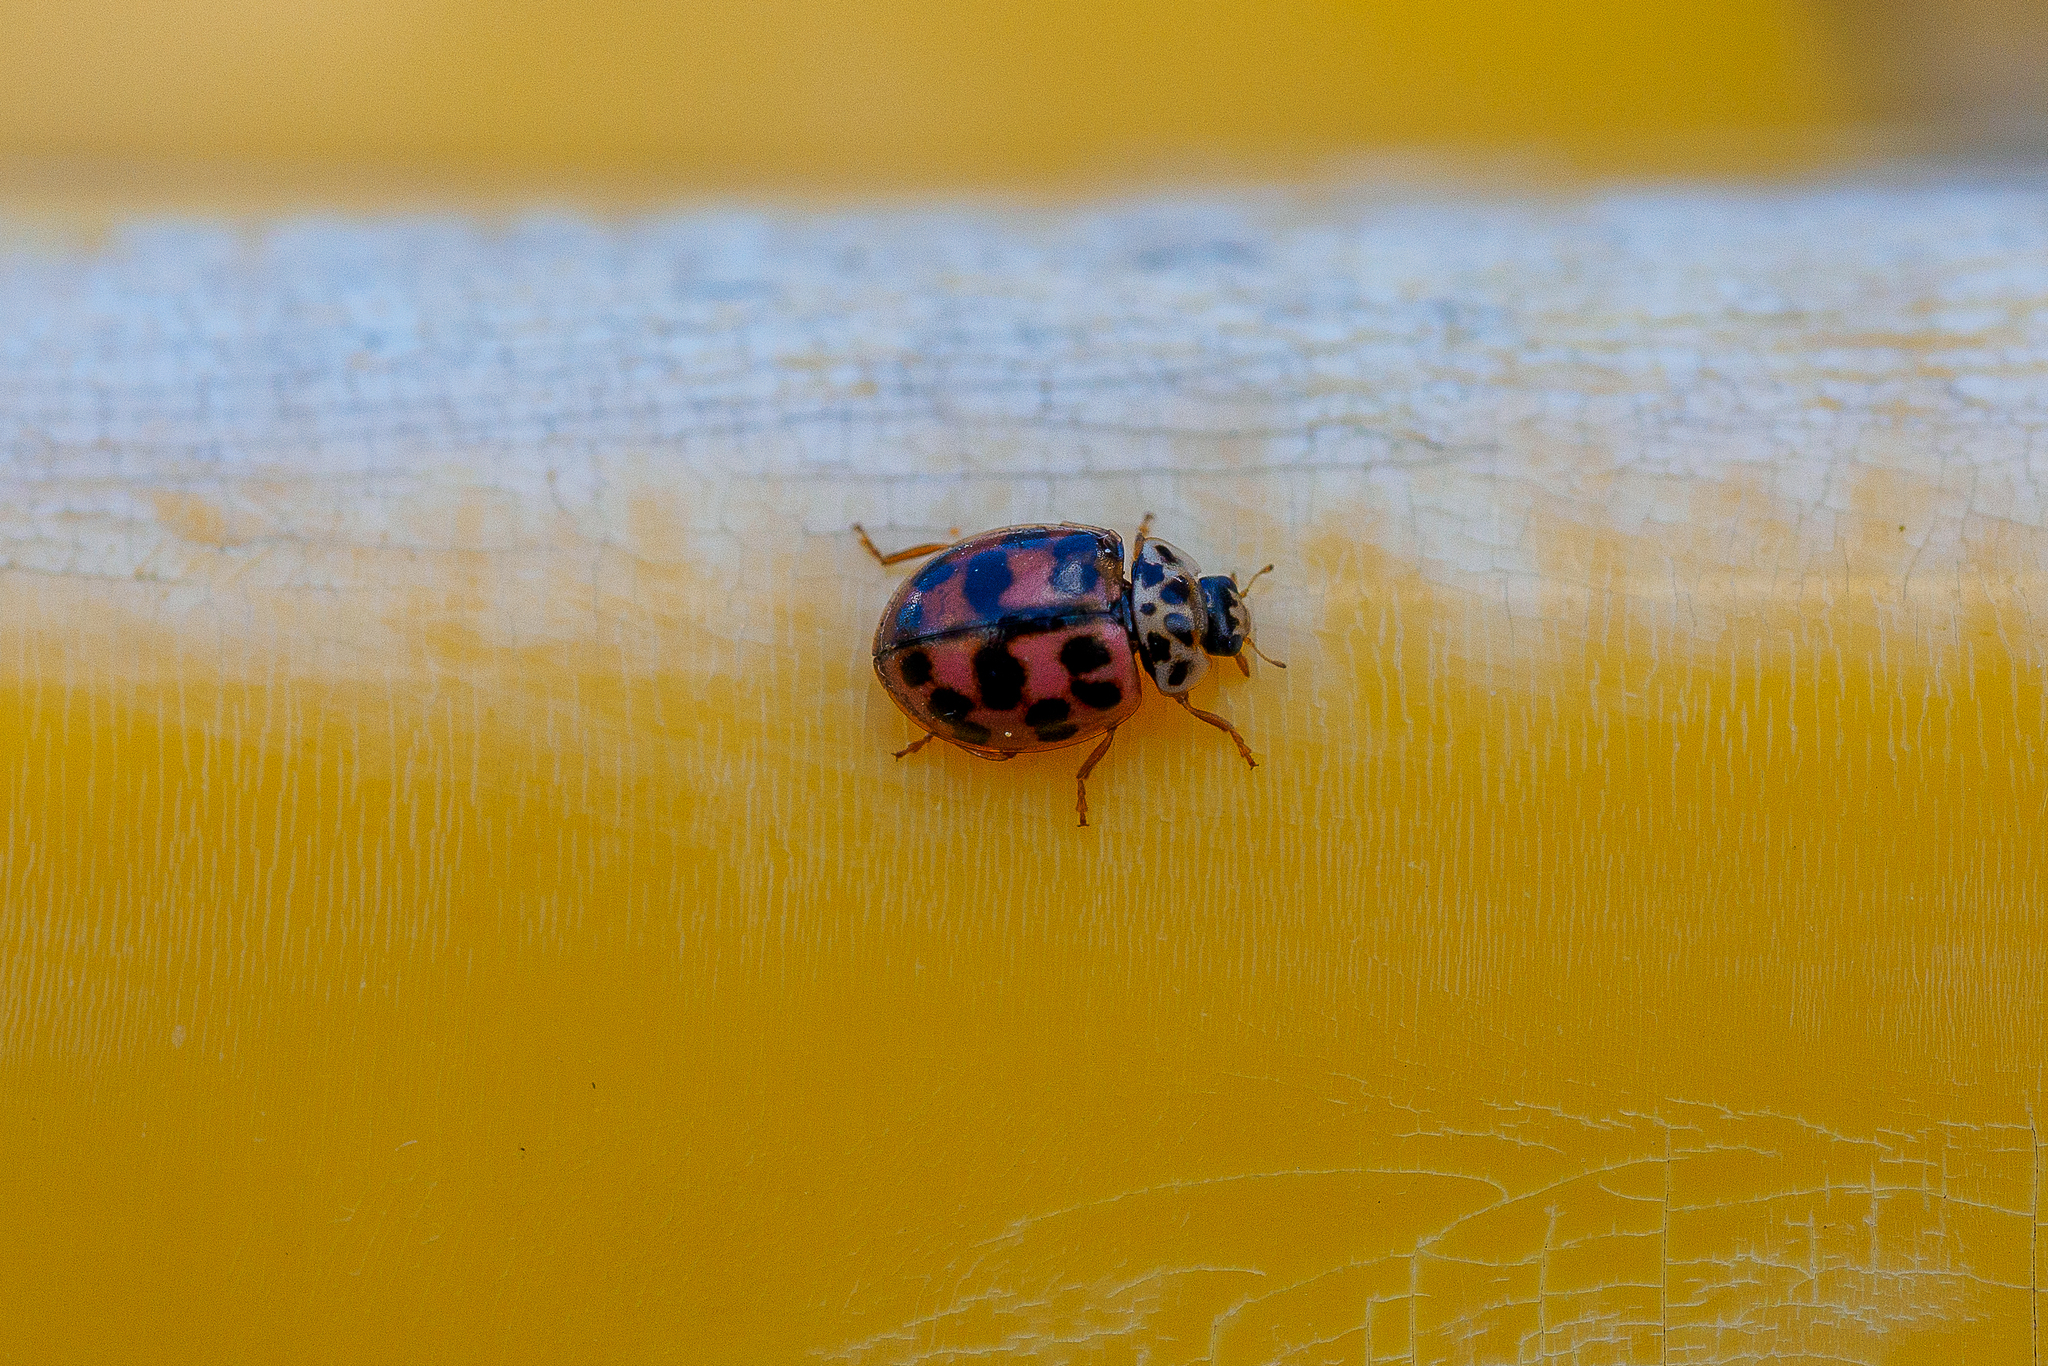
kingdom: Animalia
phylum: Arthropoda
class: Insecta
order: Coleoptera
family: Coccinellidae
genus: Oenopia
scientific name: Oenopia conglobata
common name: Ladybird beetle
